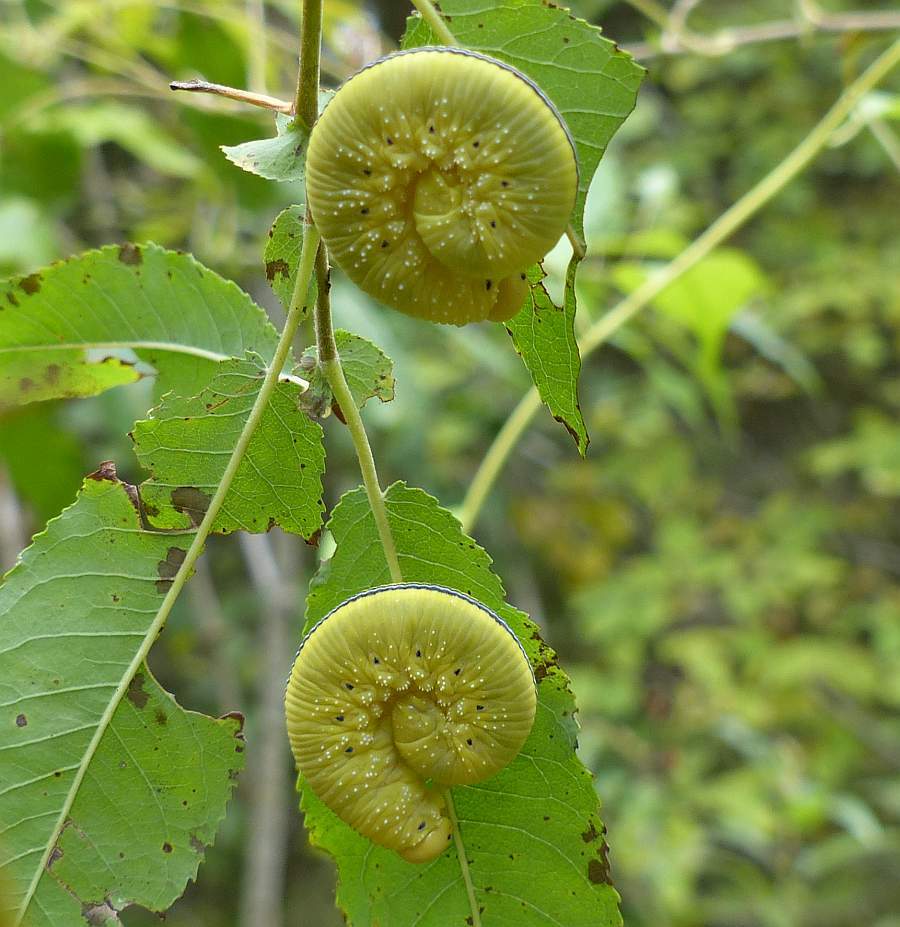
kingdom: Animalia
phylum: Arthropoda
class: Insecta
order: Hymenoptera
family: Cimbicidae
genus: Cimbex
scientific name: Cimbex americana
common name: Elm sawfly
